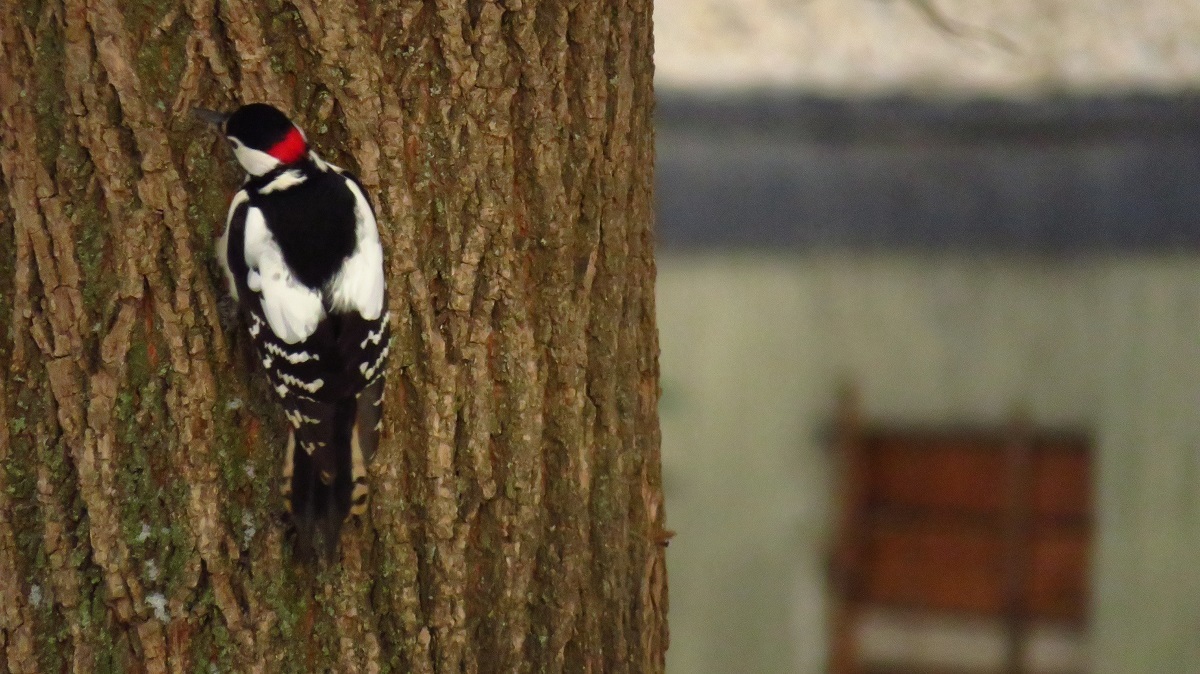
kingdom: Animalia
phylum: Chordata
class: Aves
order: Piciformes
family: Picidae
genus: Dendrocopos
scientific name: Dendrocopos major
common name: Great spotted woodpecker
